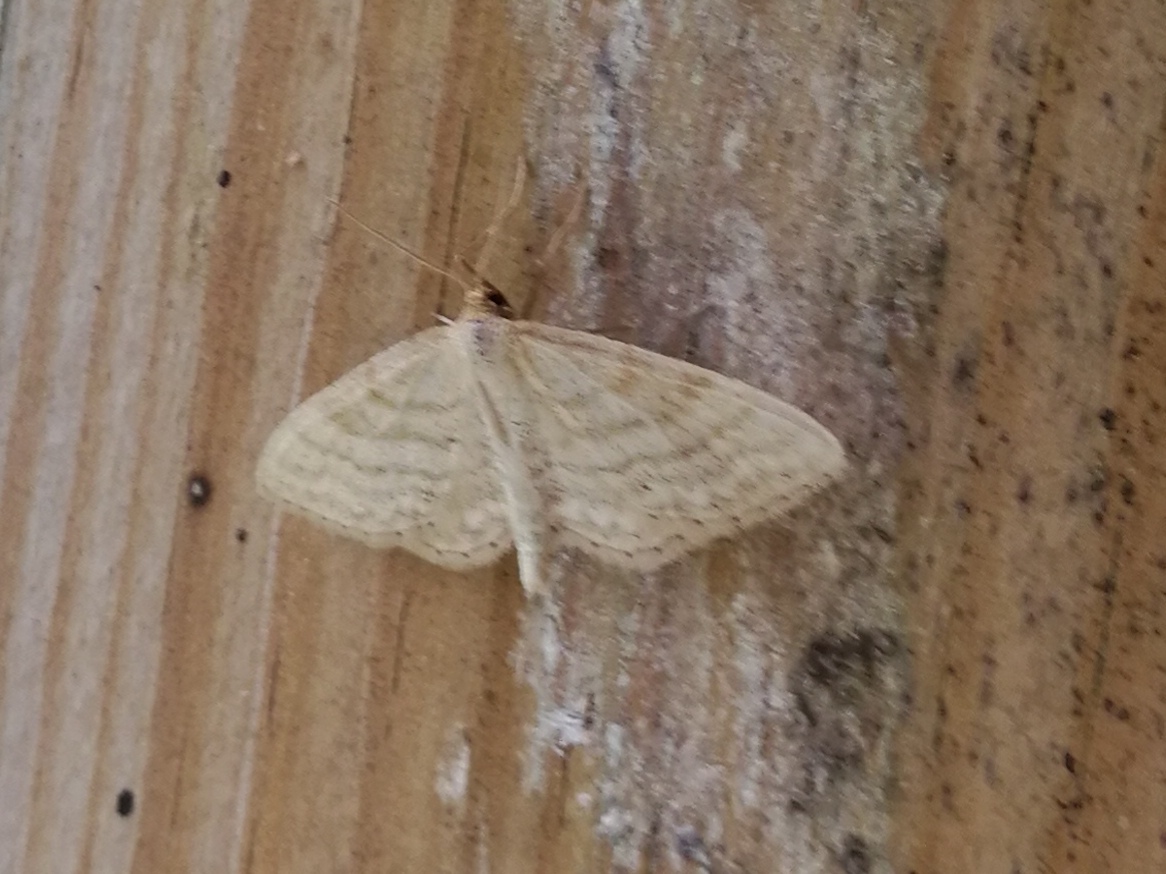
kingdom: Animalia
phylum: Arthropoda
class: Insecta
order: Lepidoptera
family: Geometridae
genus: Idaea
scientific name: Idaea antiquaria
